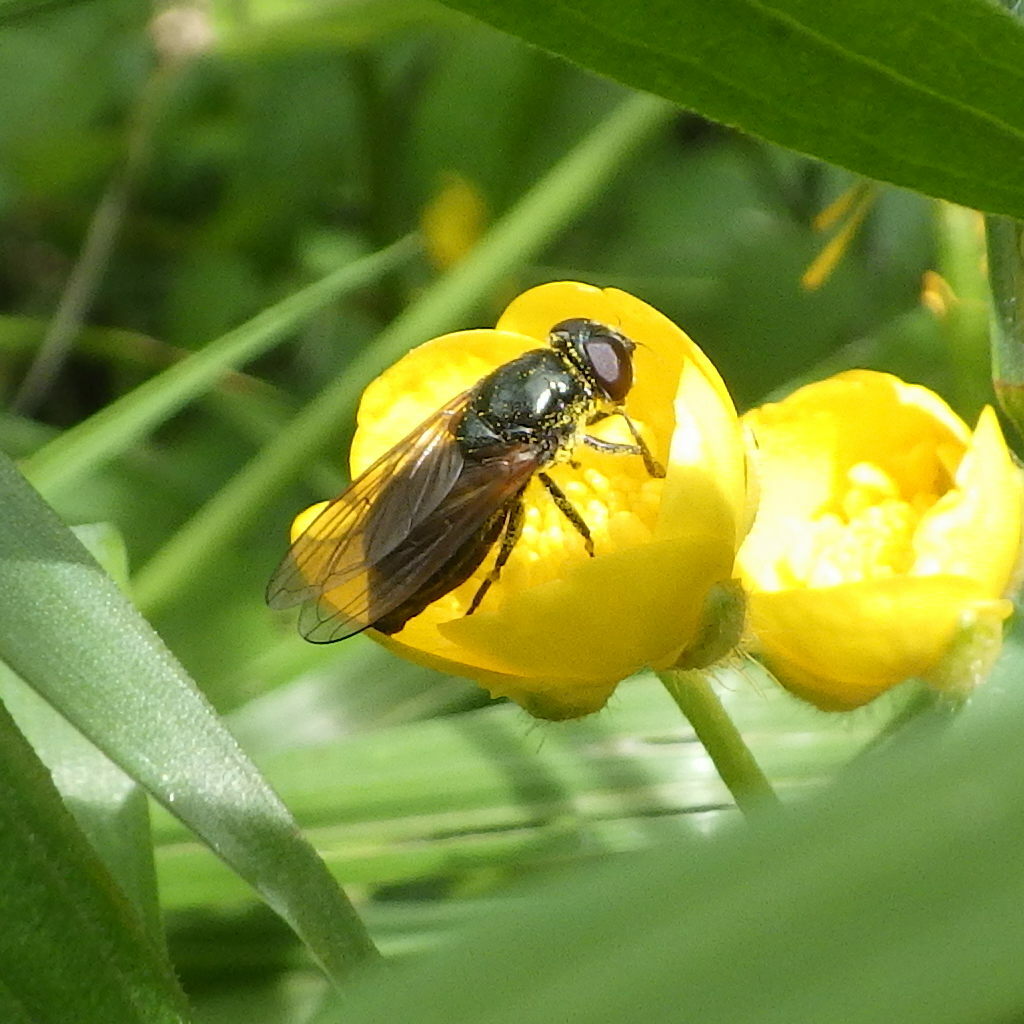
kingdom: Animalia
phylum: Arthropoda
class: Insecta
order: Diptera
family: Syrphidae
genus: Cheilosia
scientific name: Cheilosia albitarsis
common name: Buttercup blacklet
